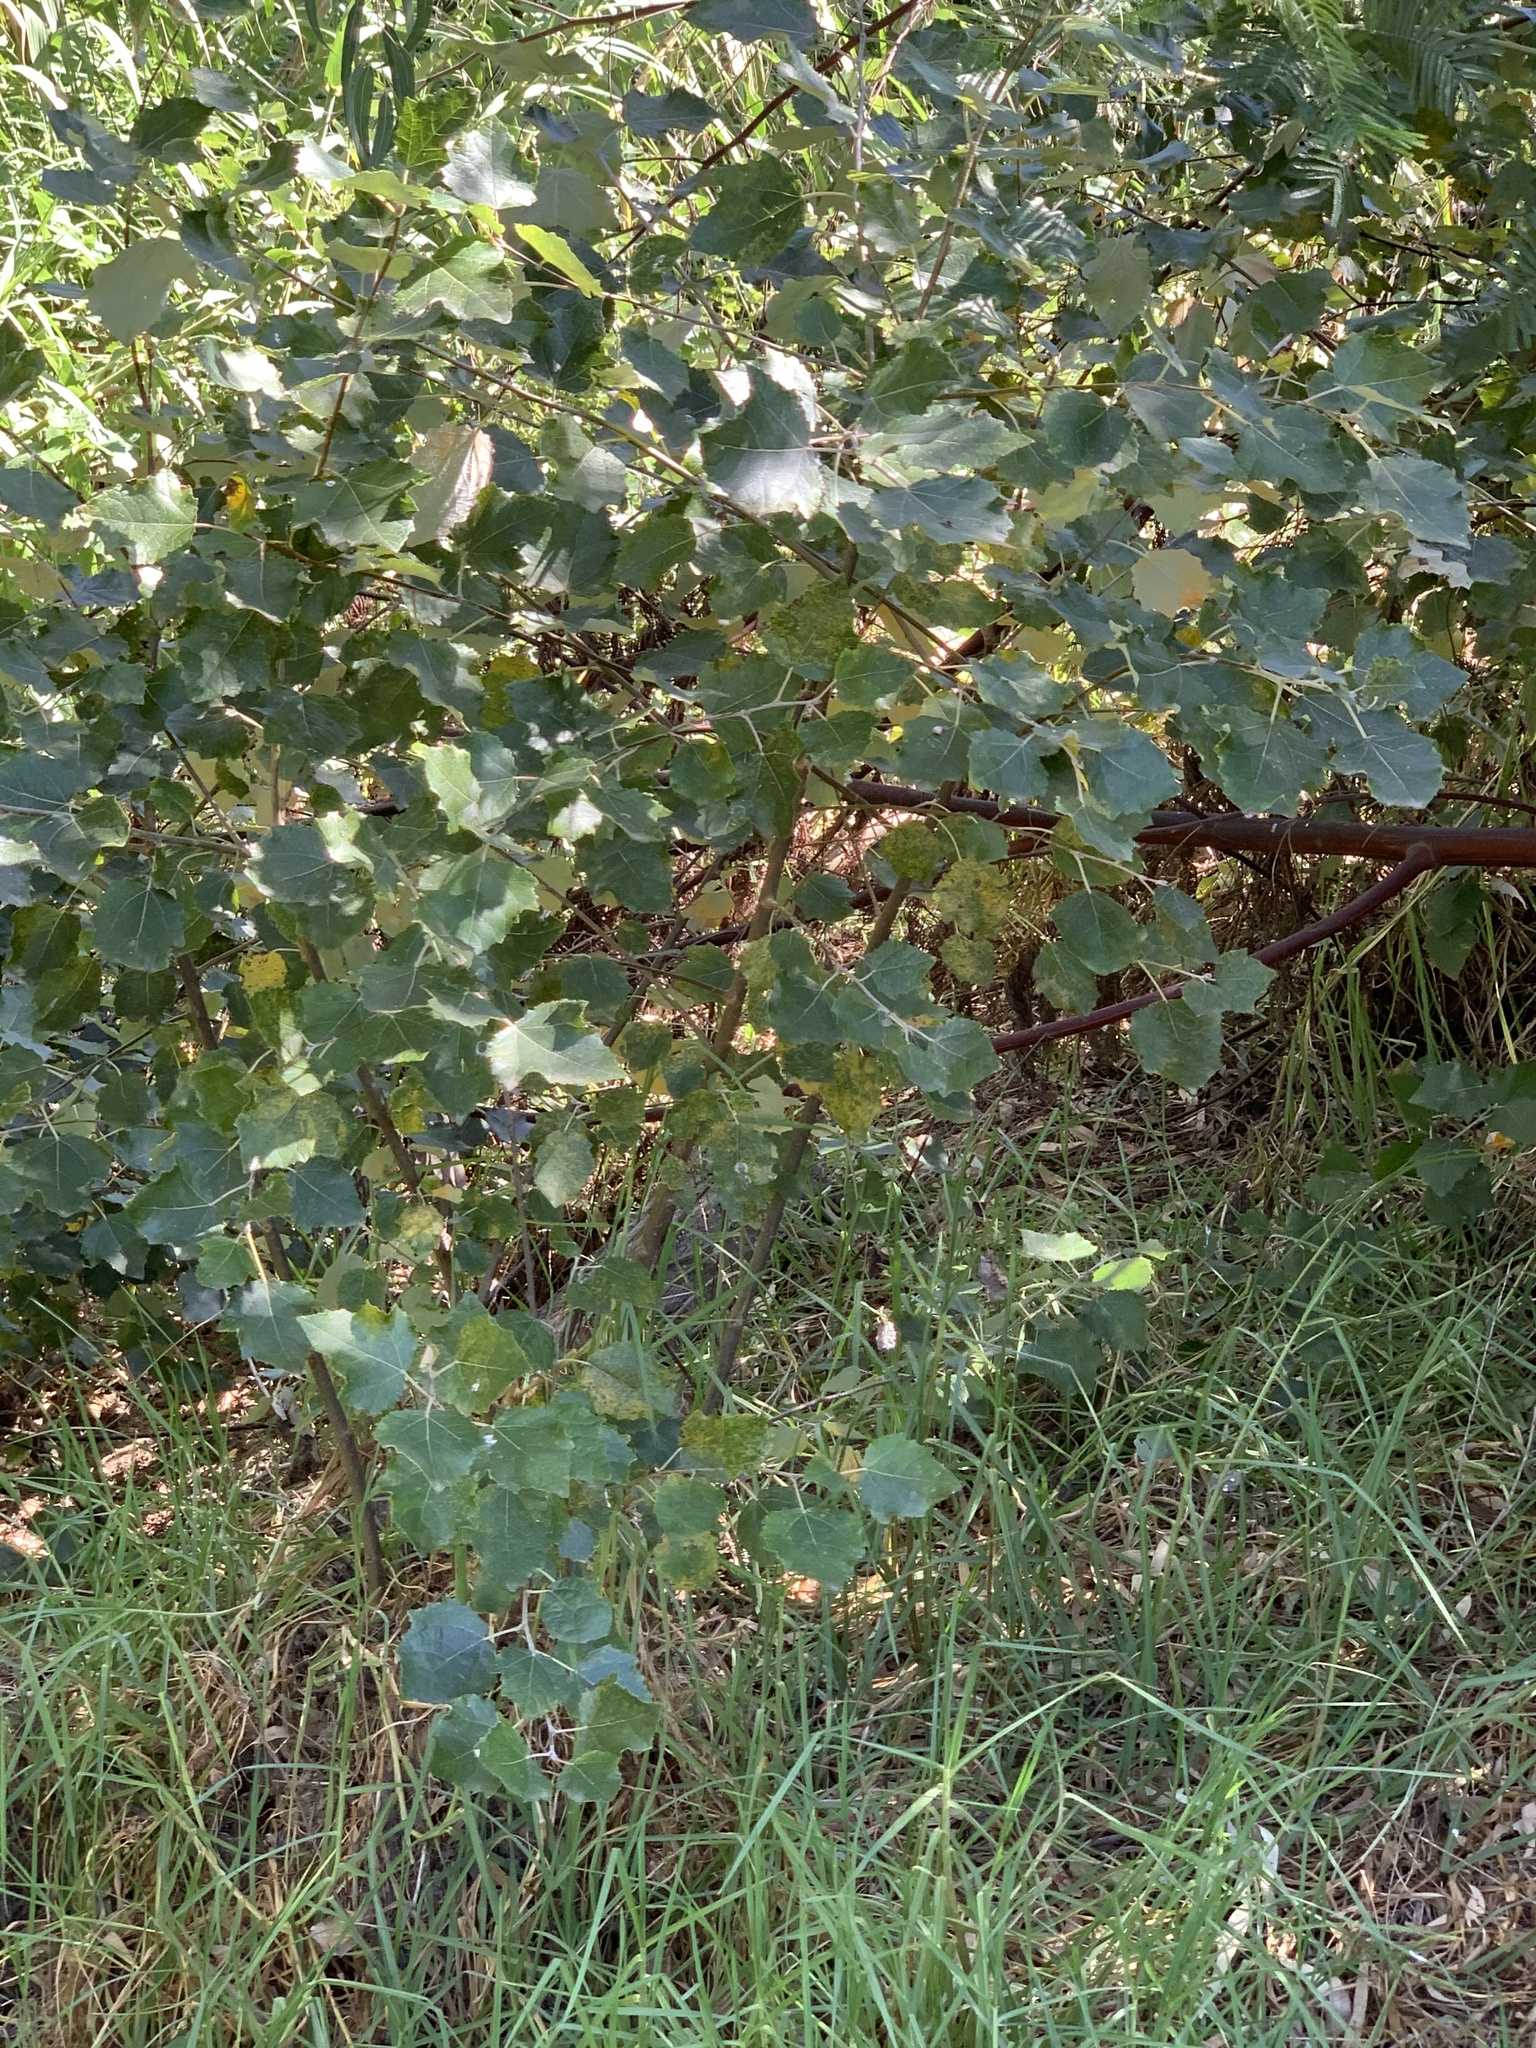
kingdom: Plantae
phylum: Tracheophyta
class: Magnoliopsida
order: Malpighiales
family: Salicaceae
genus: Populus
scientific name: Populus canescens
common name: Gray poplar
